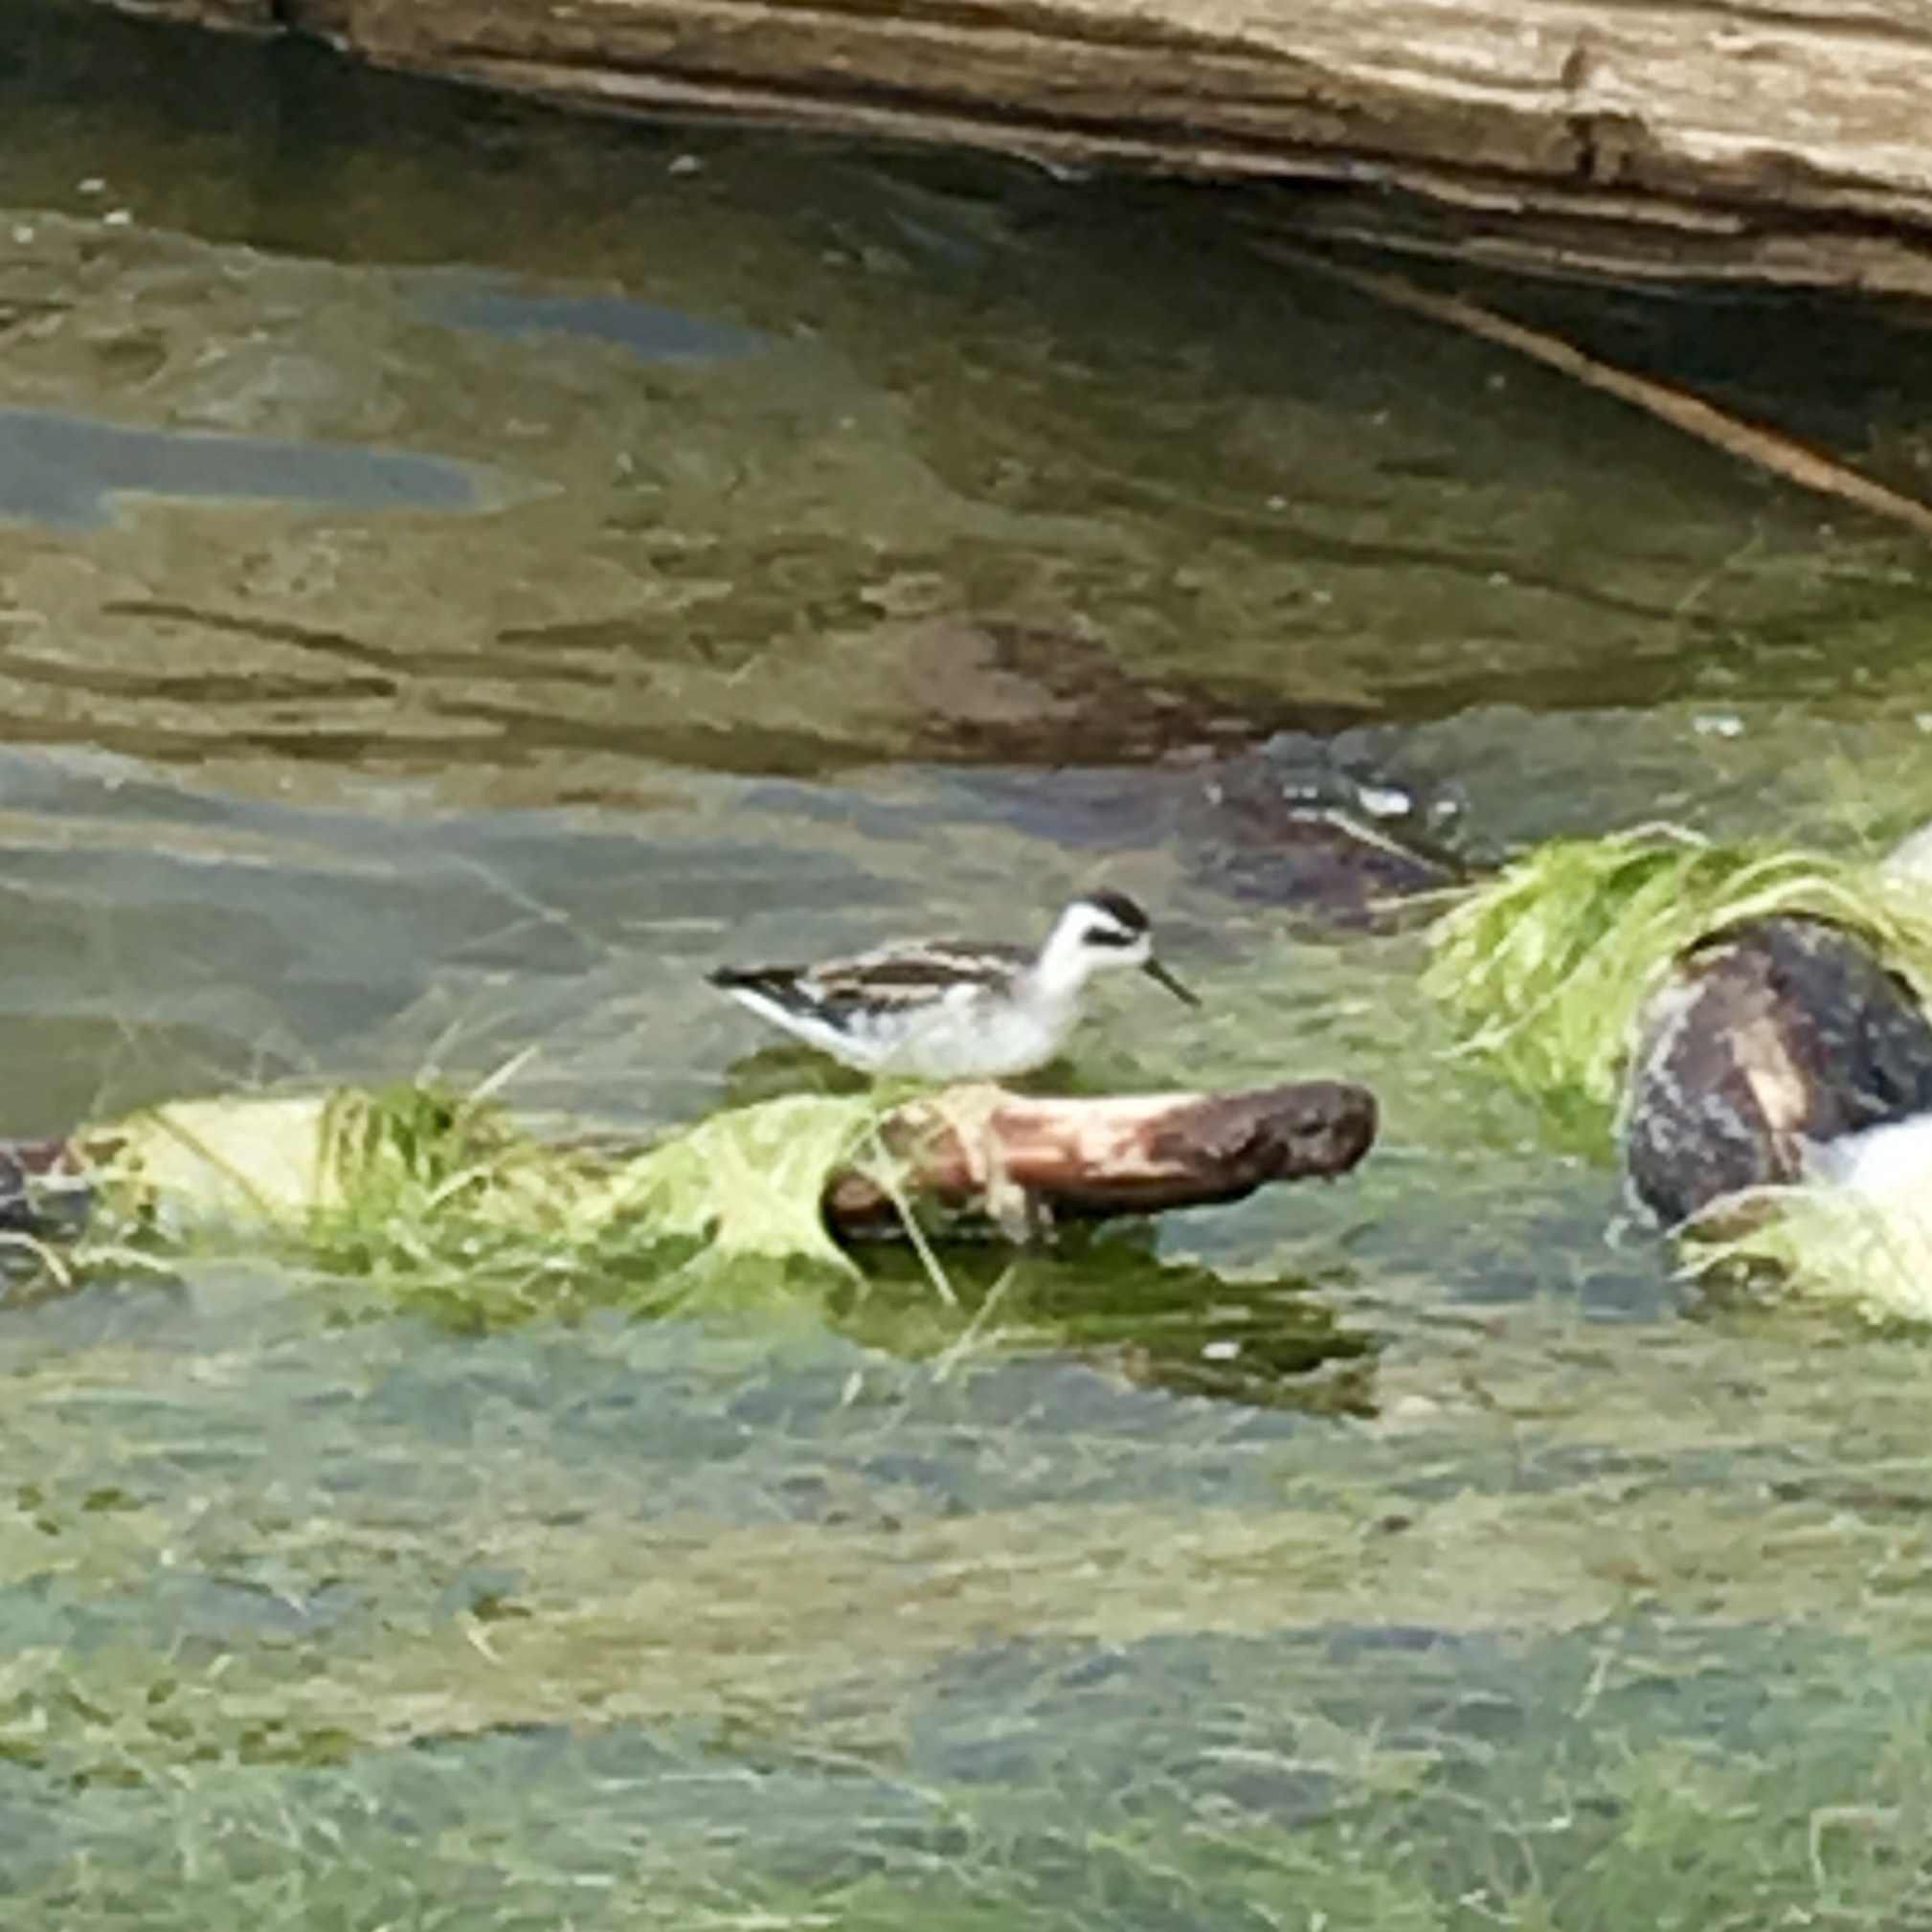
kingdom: Animalia
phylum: Chordata
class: Aves
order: Charadriiformes
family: Scolopacidae
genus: Phalaropus
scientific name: Phalaropus lobatus
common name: Red-necked phalarope
